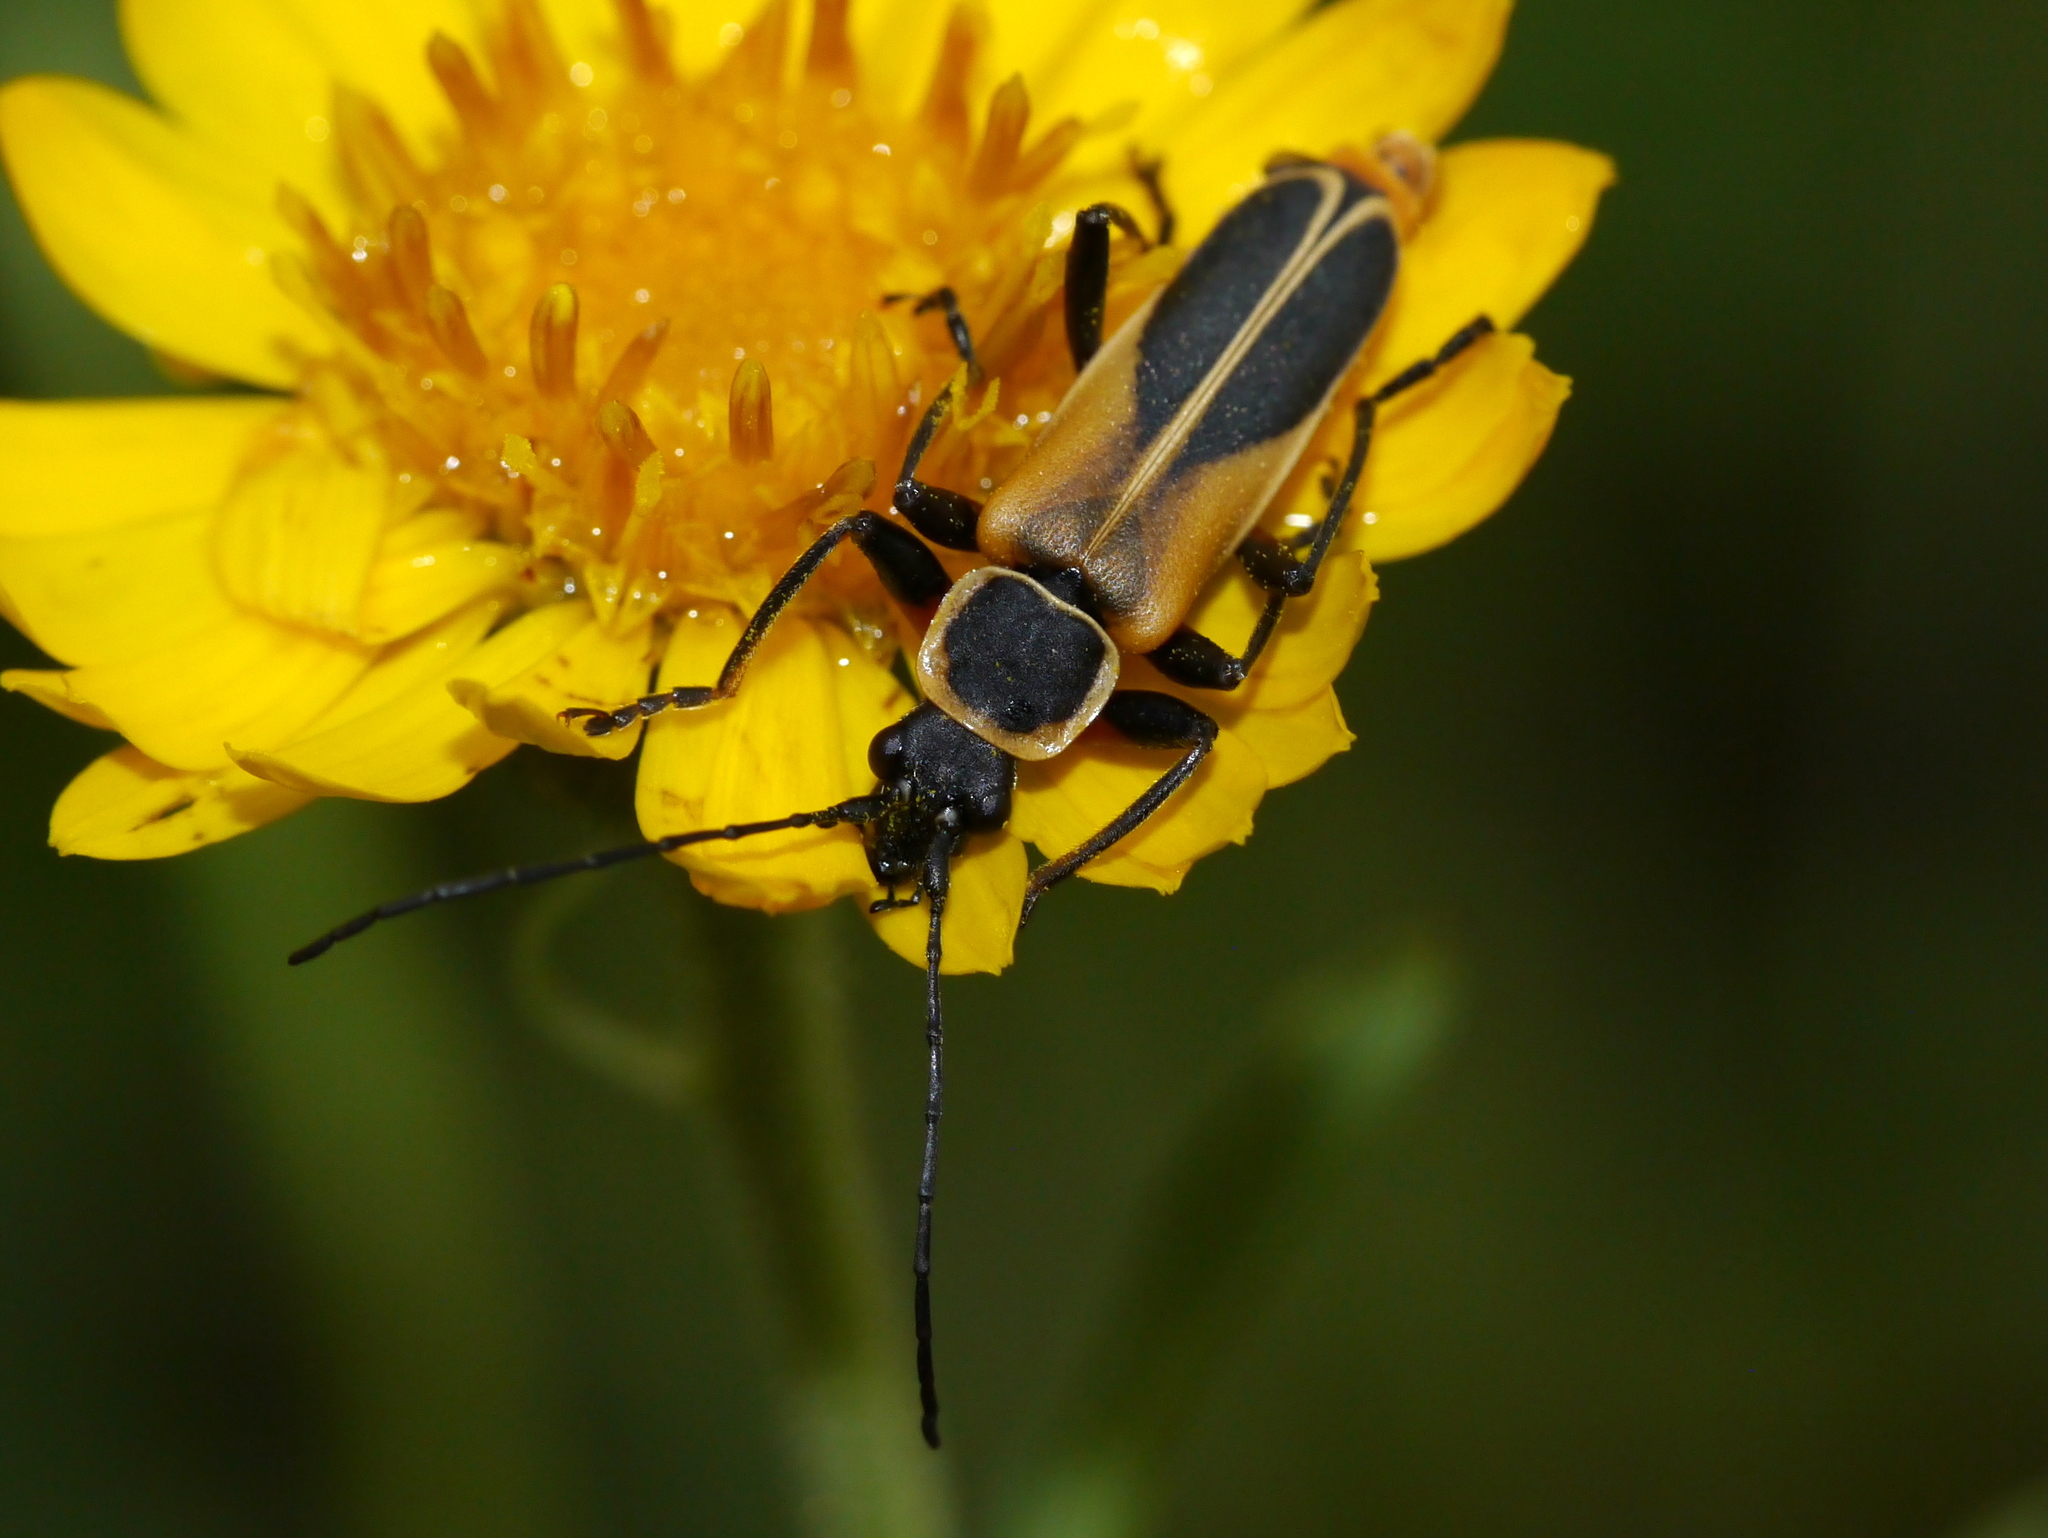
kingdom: Animalia
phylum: Arthropoda
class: Insecta
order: Coleoptera
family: Cantharidae
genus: Chauliognathus
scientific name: Chauliognathus opacus
